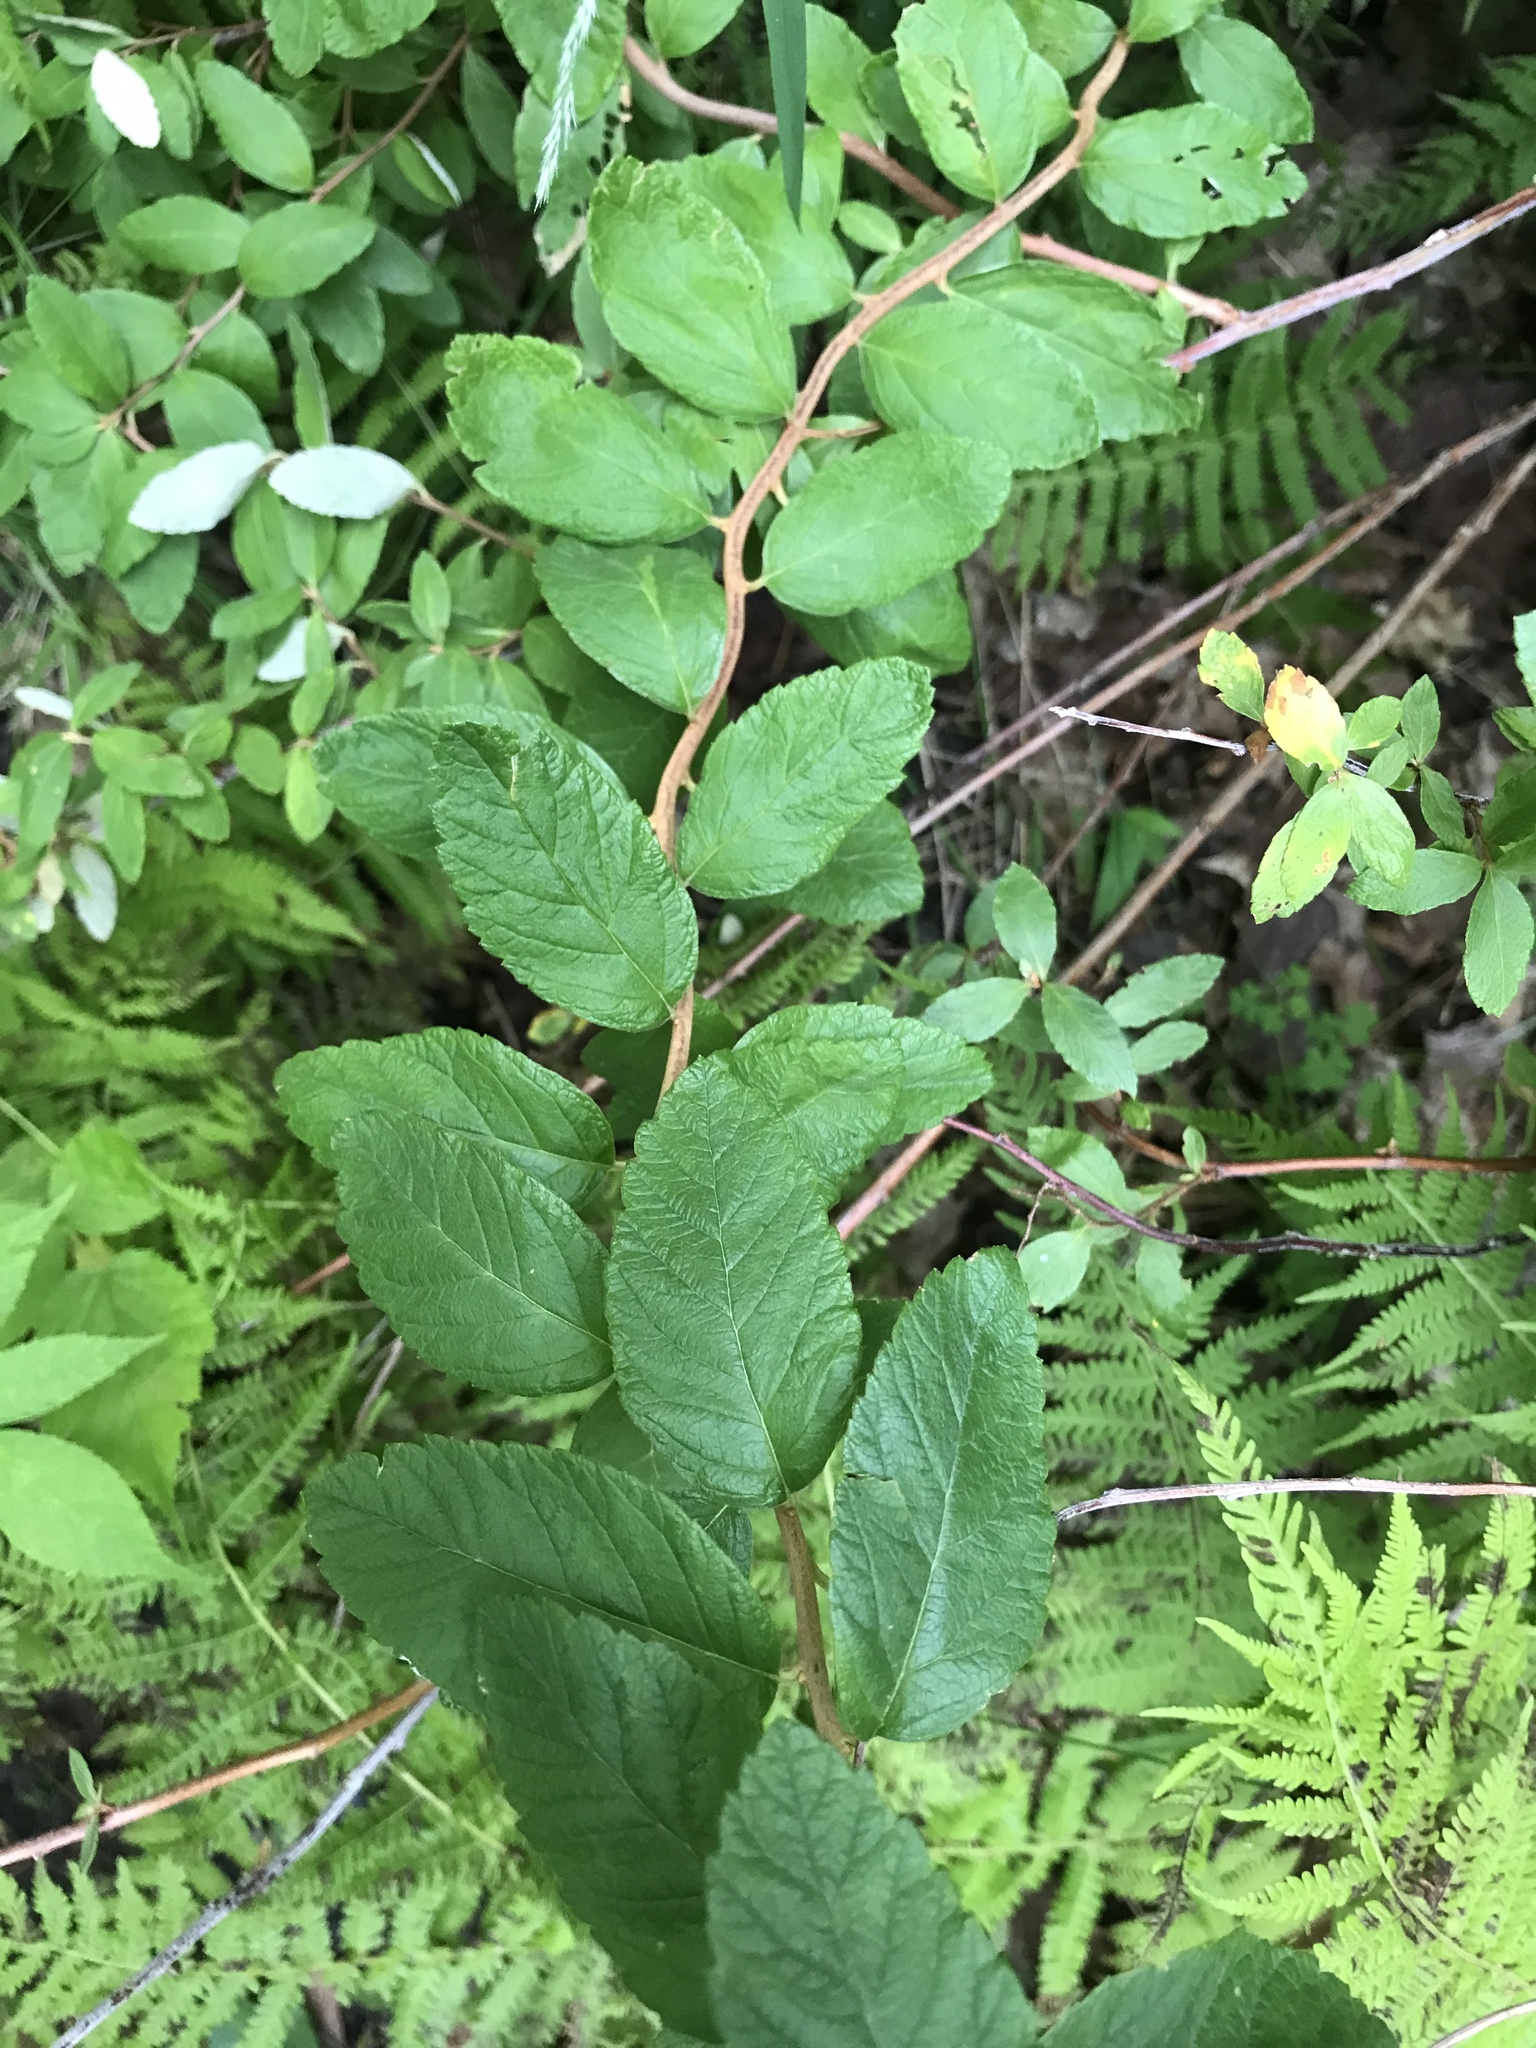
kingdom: Plantae
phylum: Tracheophyta
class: Magnoliopsida
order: Rosales
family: Rosaceae
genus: Spiraea
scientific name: Spiraea tomentosa
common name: Hardhack
